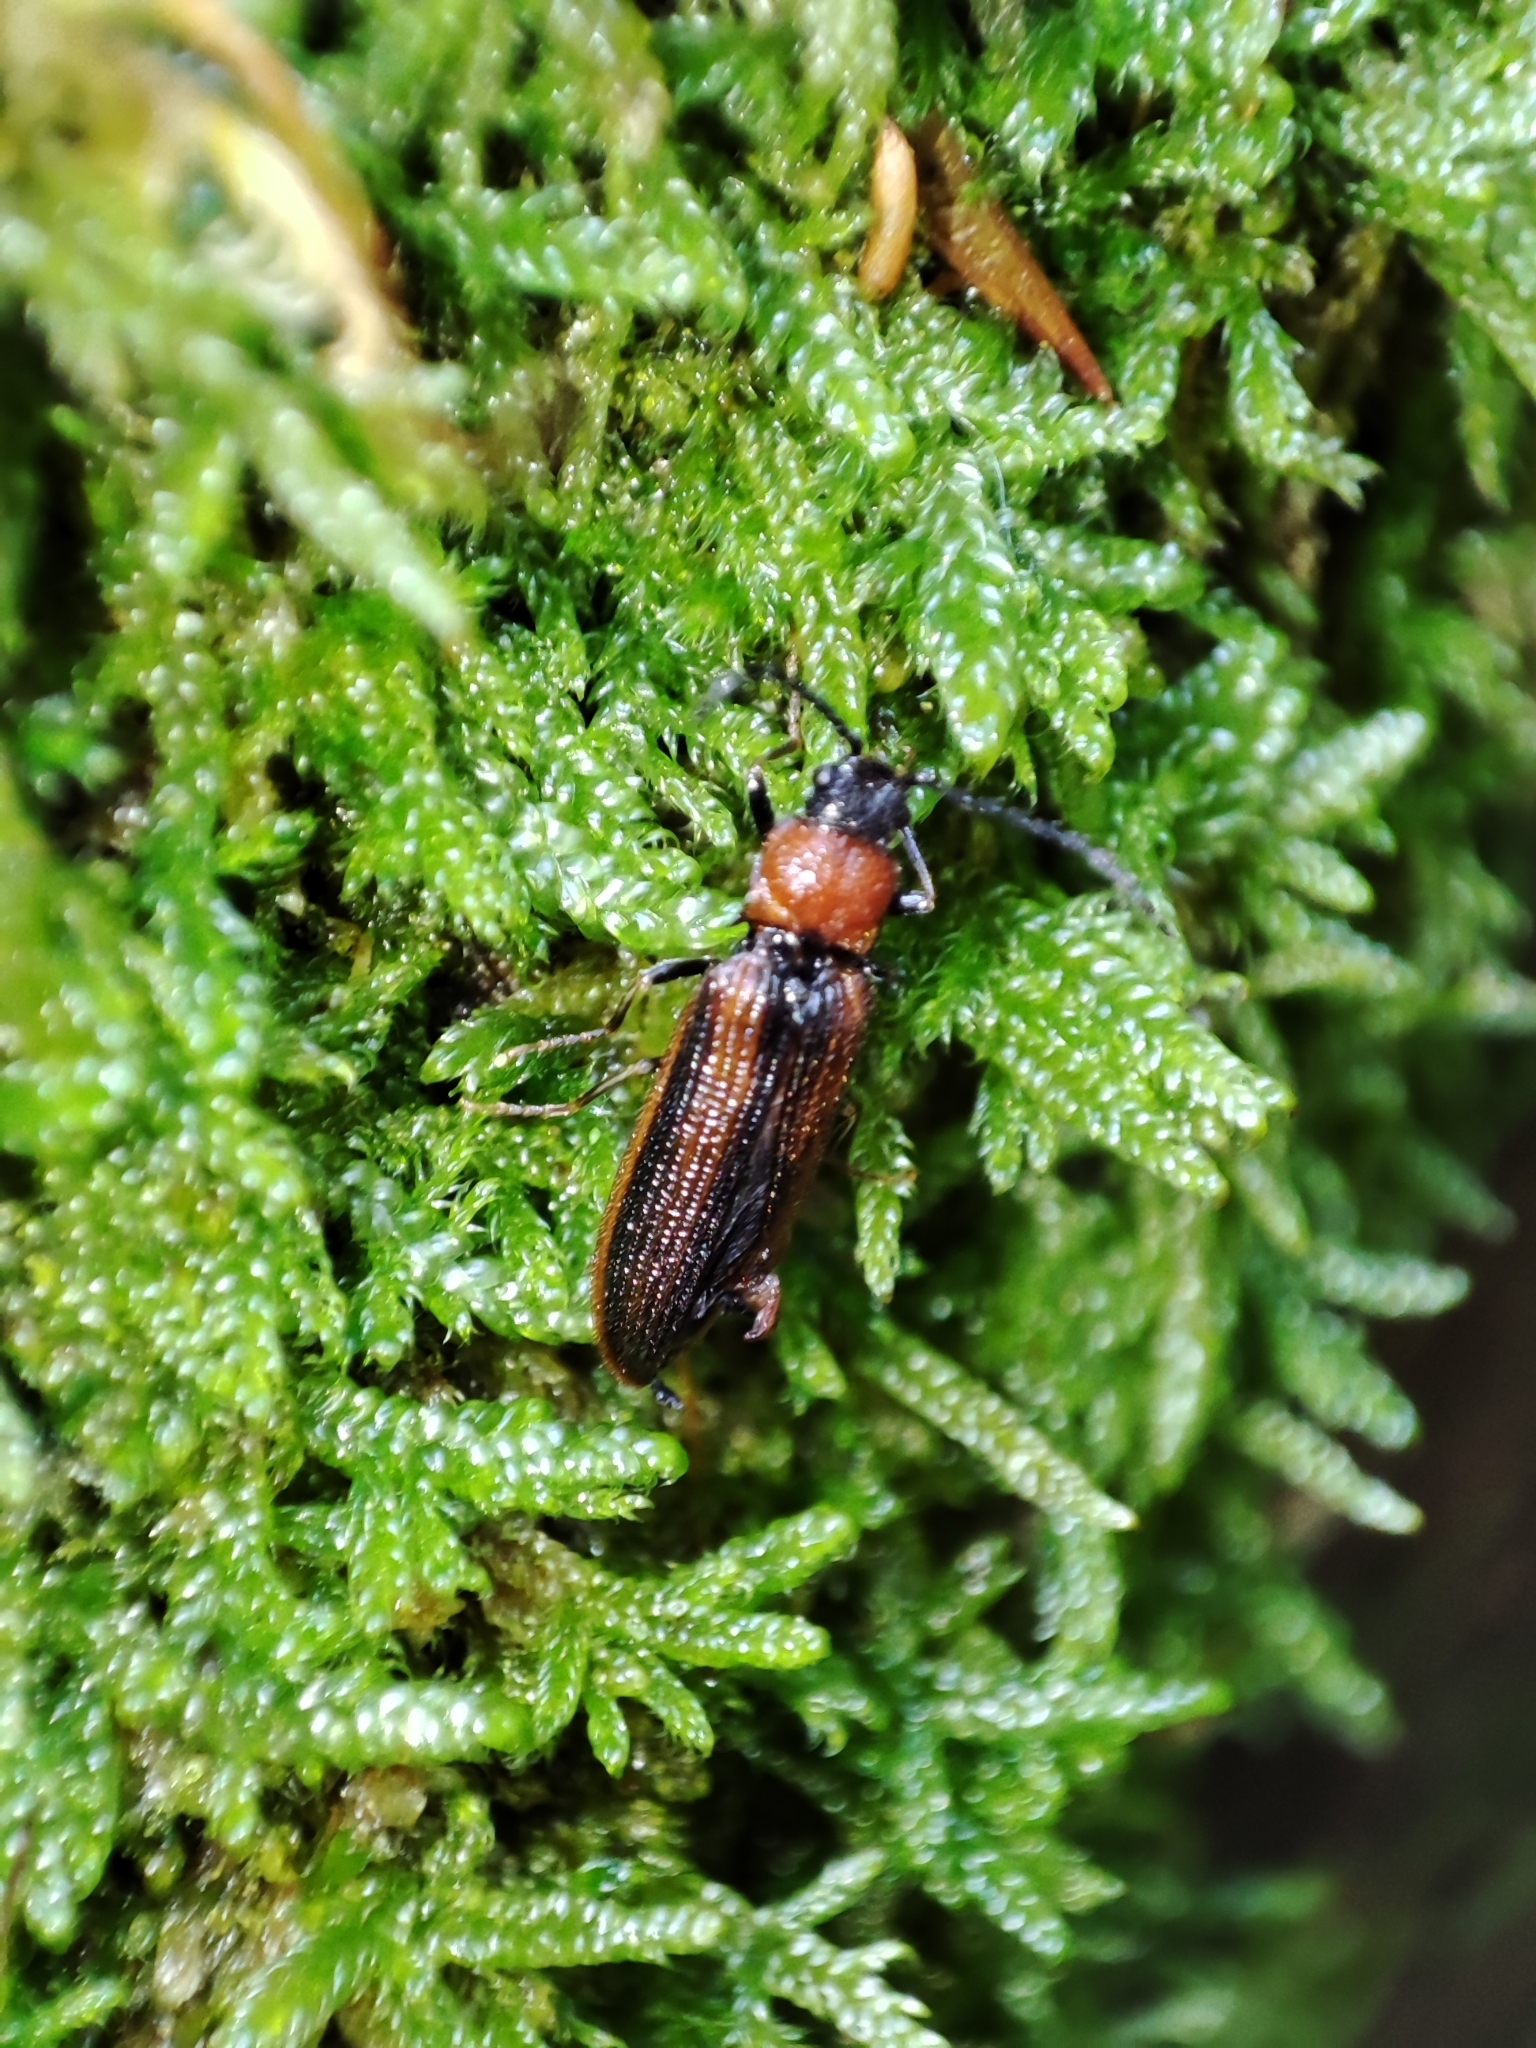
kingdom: Animalia
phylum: Arthropoda
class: Insecta
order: Coleoptera
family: Elateridae
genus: Denticollis
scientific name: Denticollis interpositus
